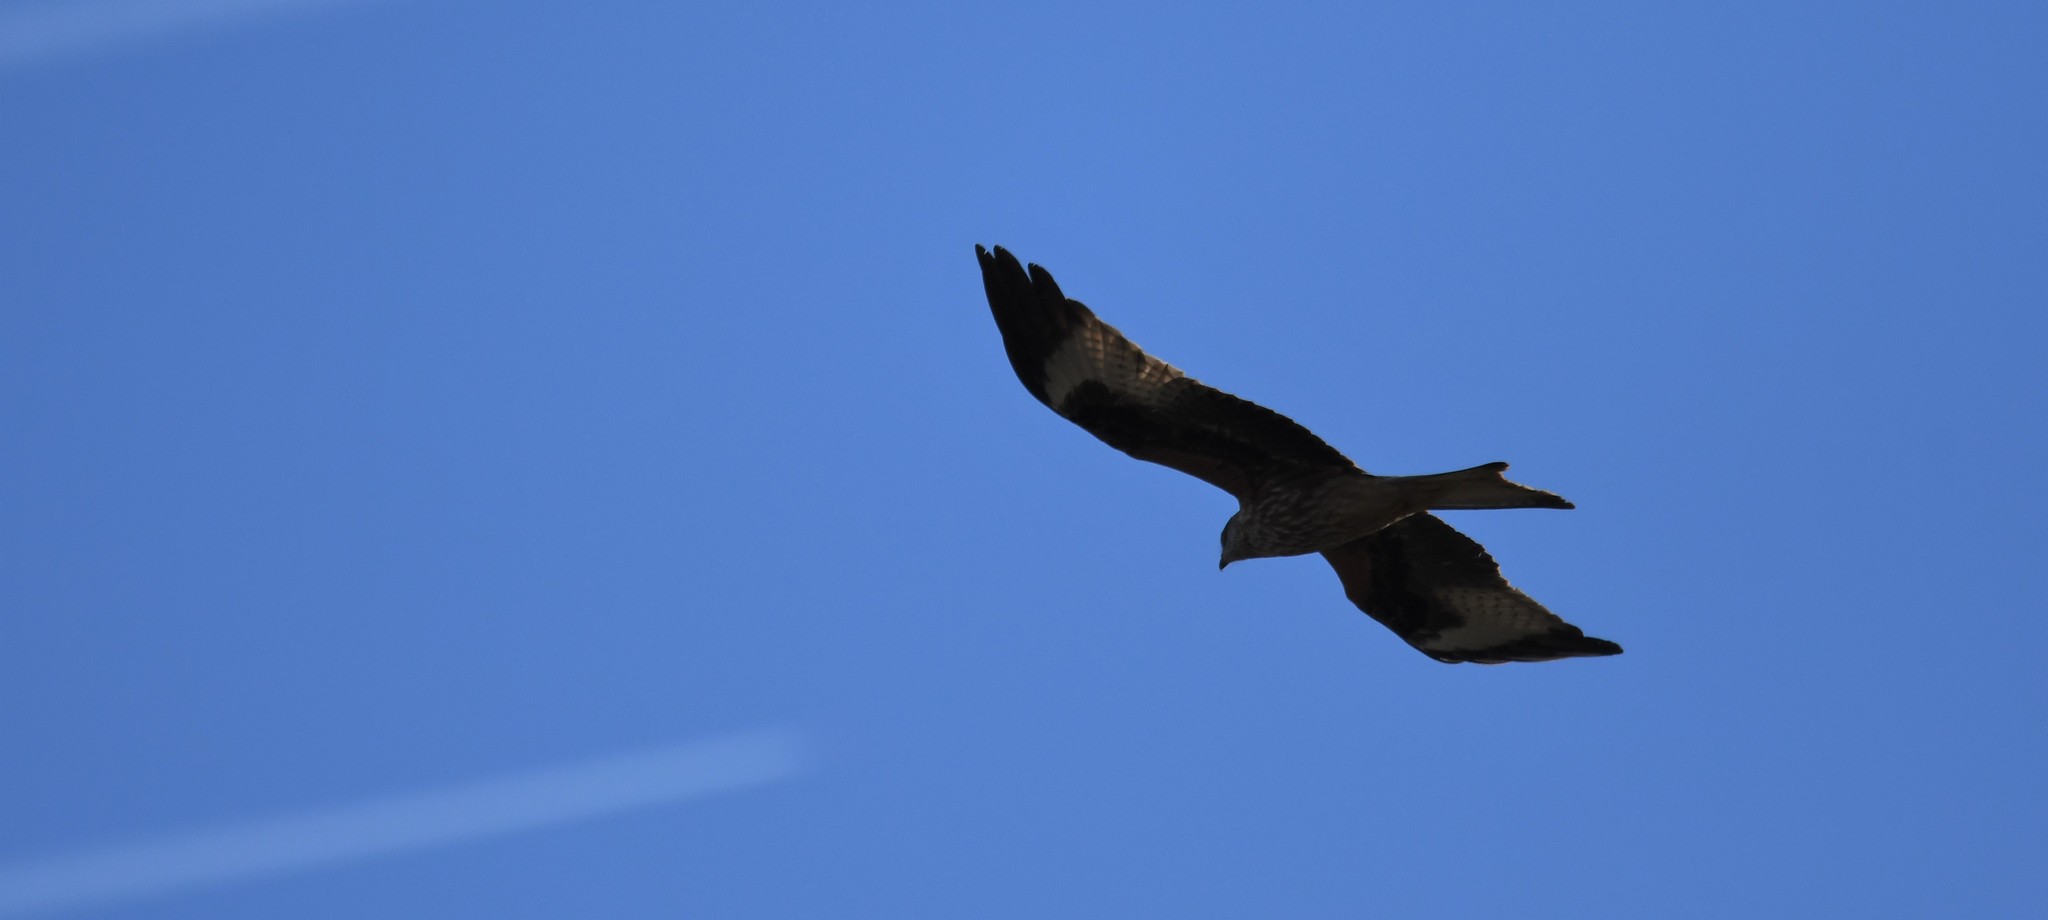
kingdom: Animalia
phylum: Chordata
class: Aves
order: Accipitriformes
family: Accipitridae
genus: Milvus
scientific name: Milvus milvus
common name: Red kite
